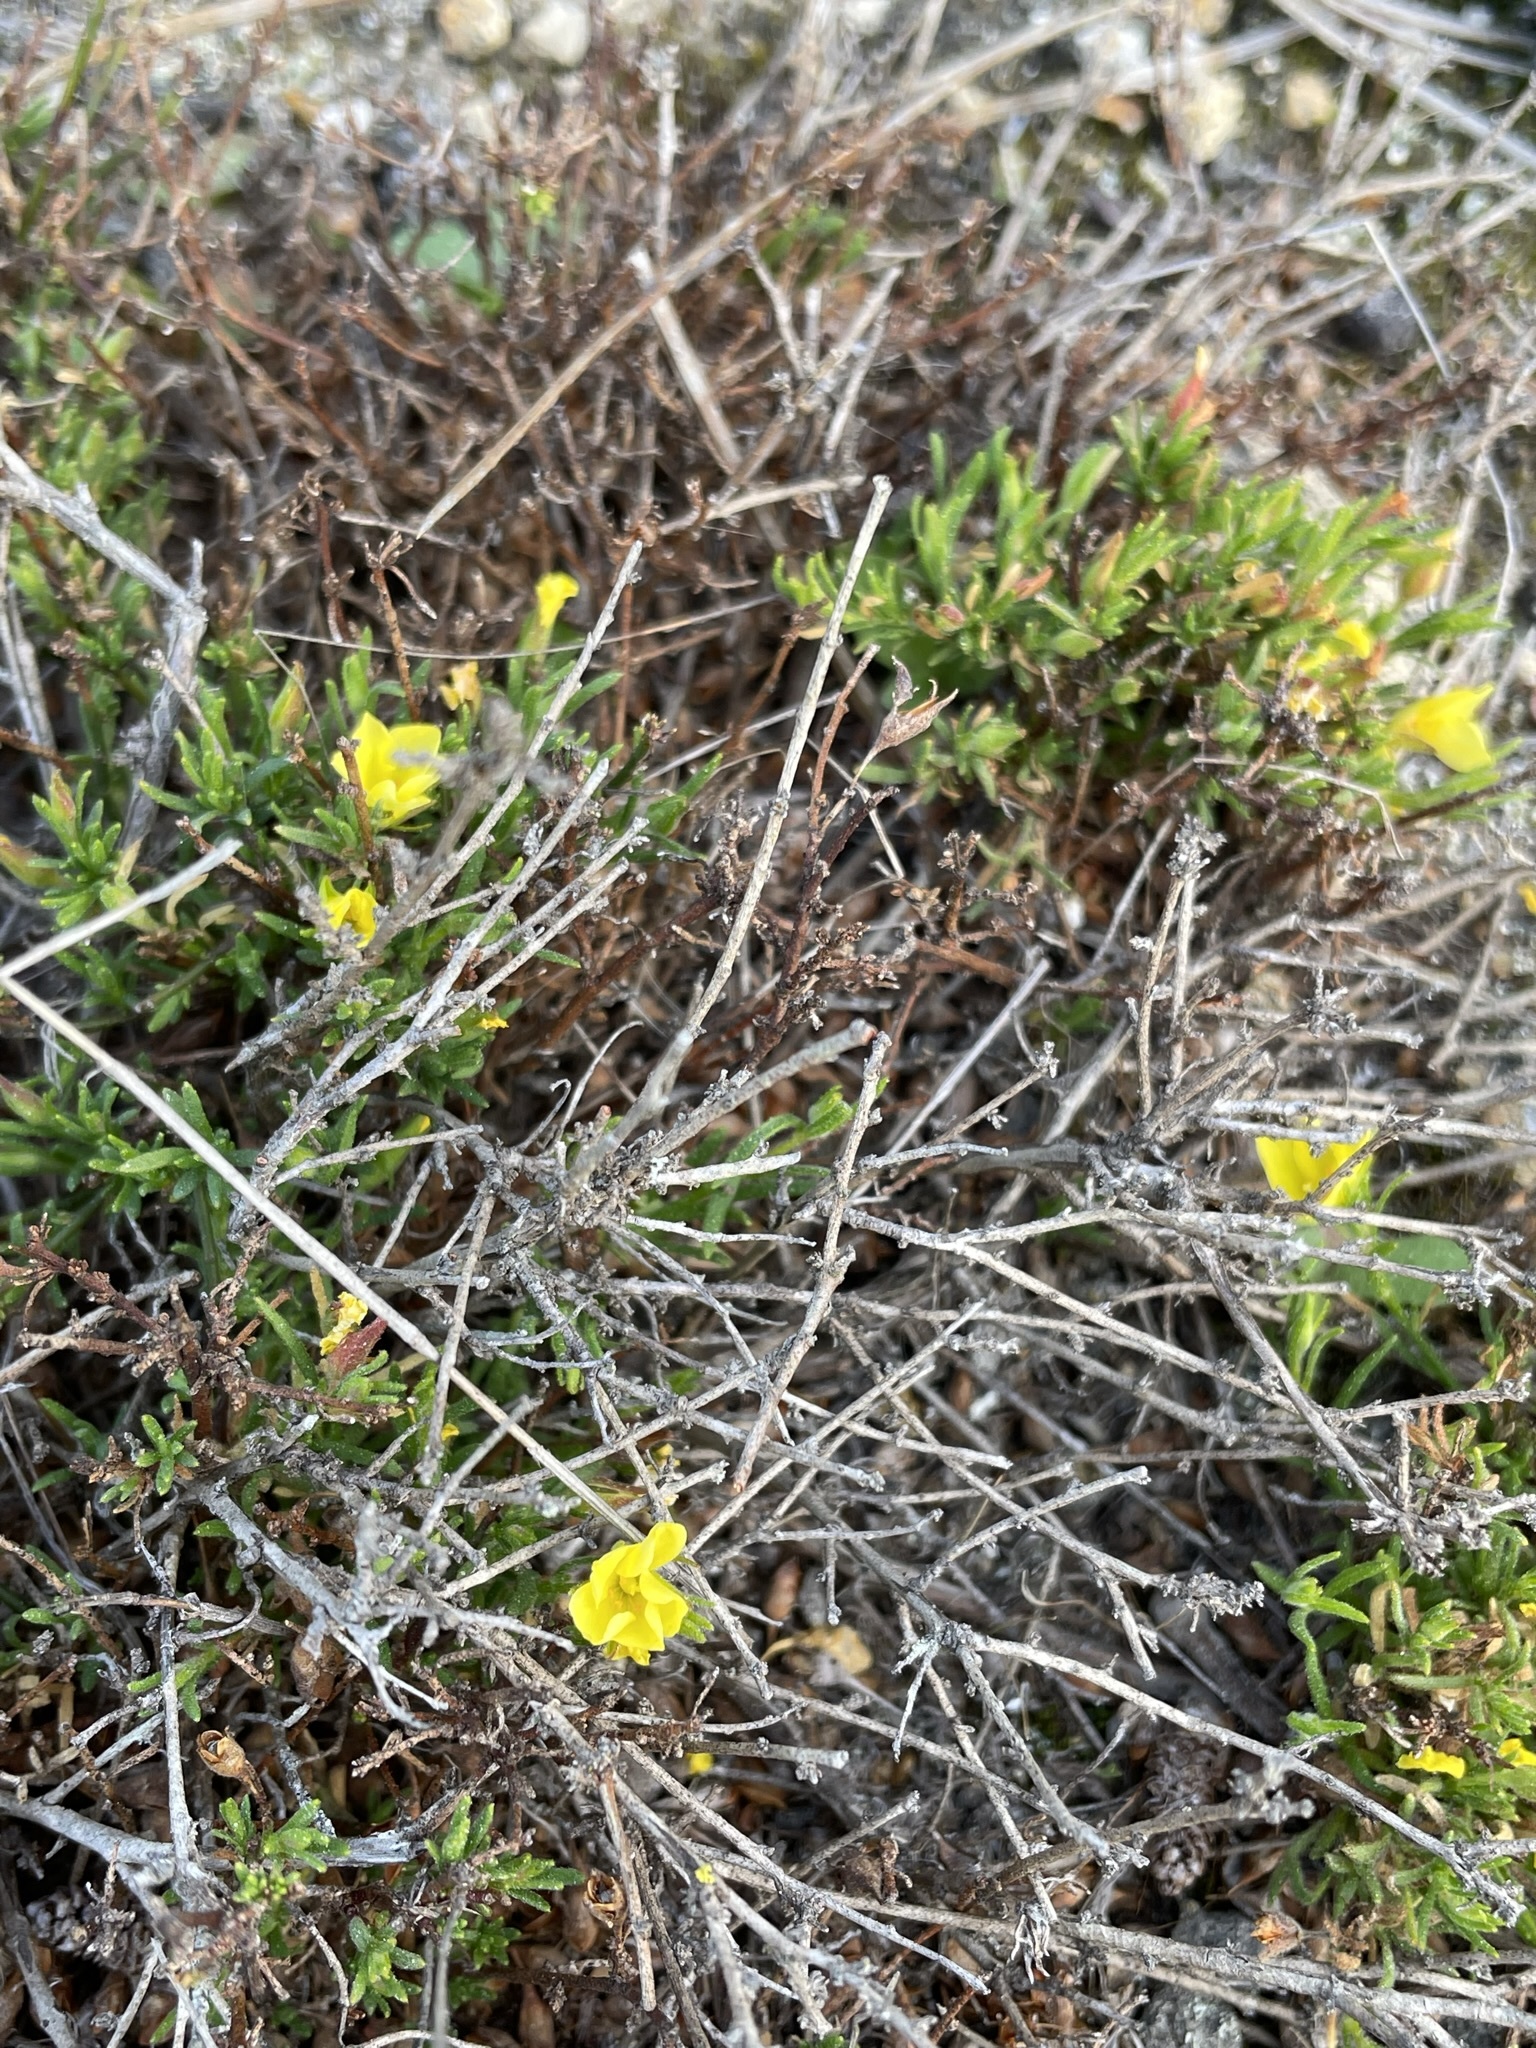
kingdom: Plantae
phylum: Tracheophyta
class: Magnoliopsida
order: Malvales
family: Cistaceae
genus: Crocanthemum
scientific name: Crocanthemum scoparium
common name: Broom-rose
